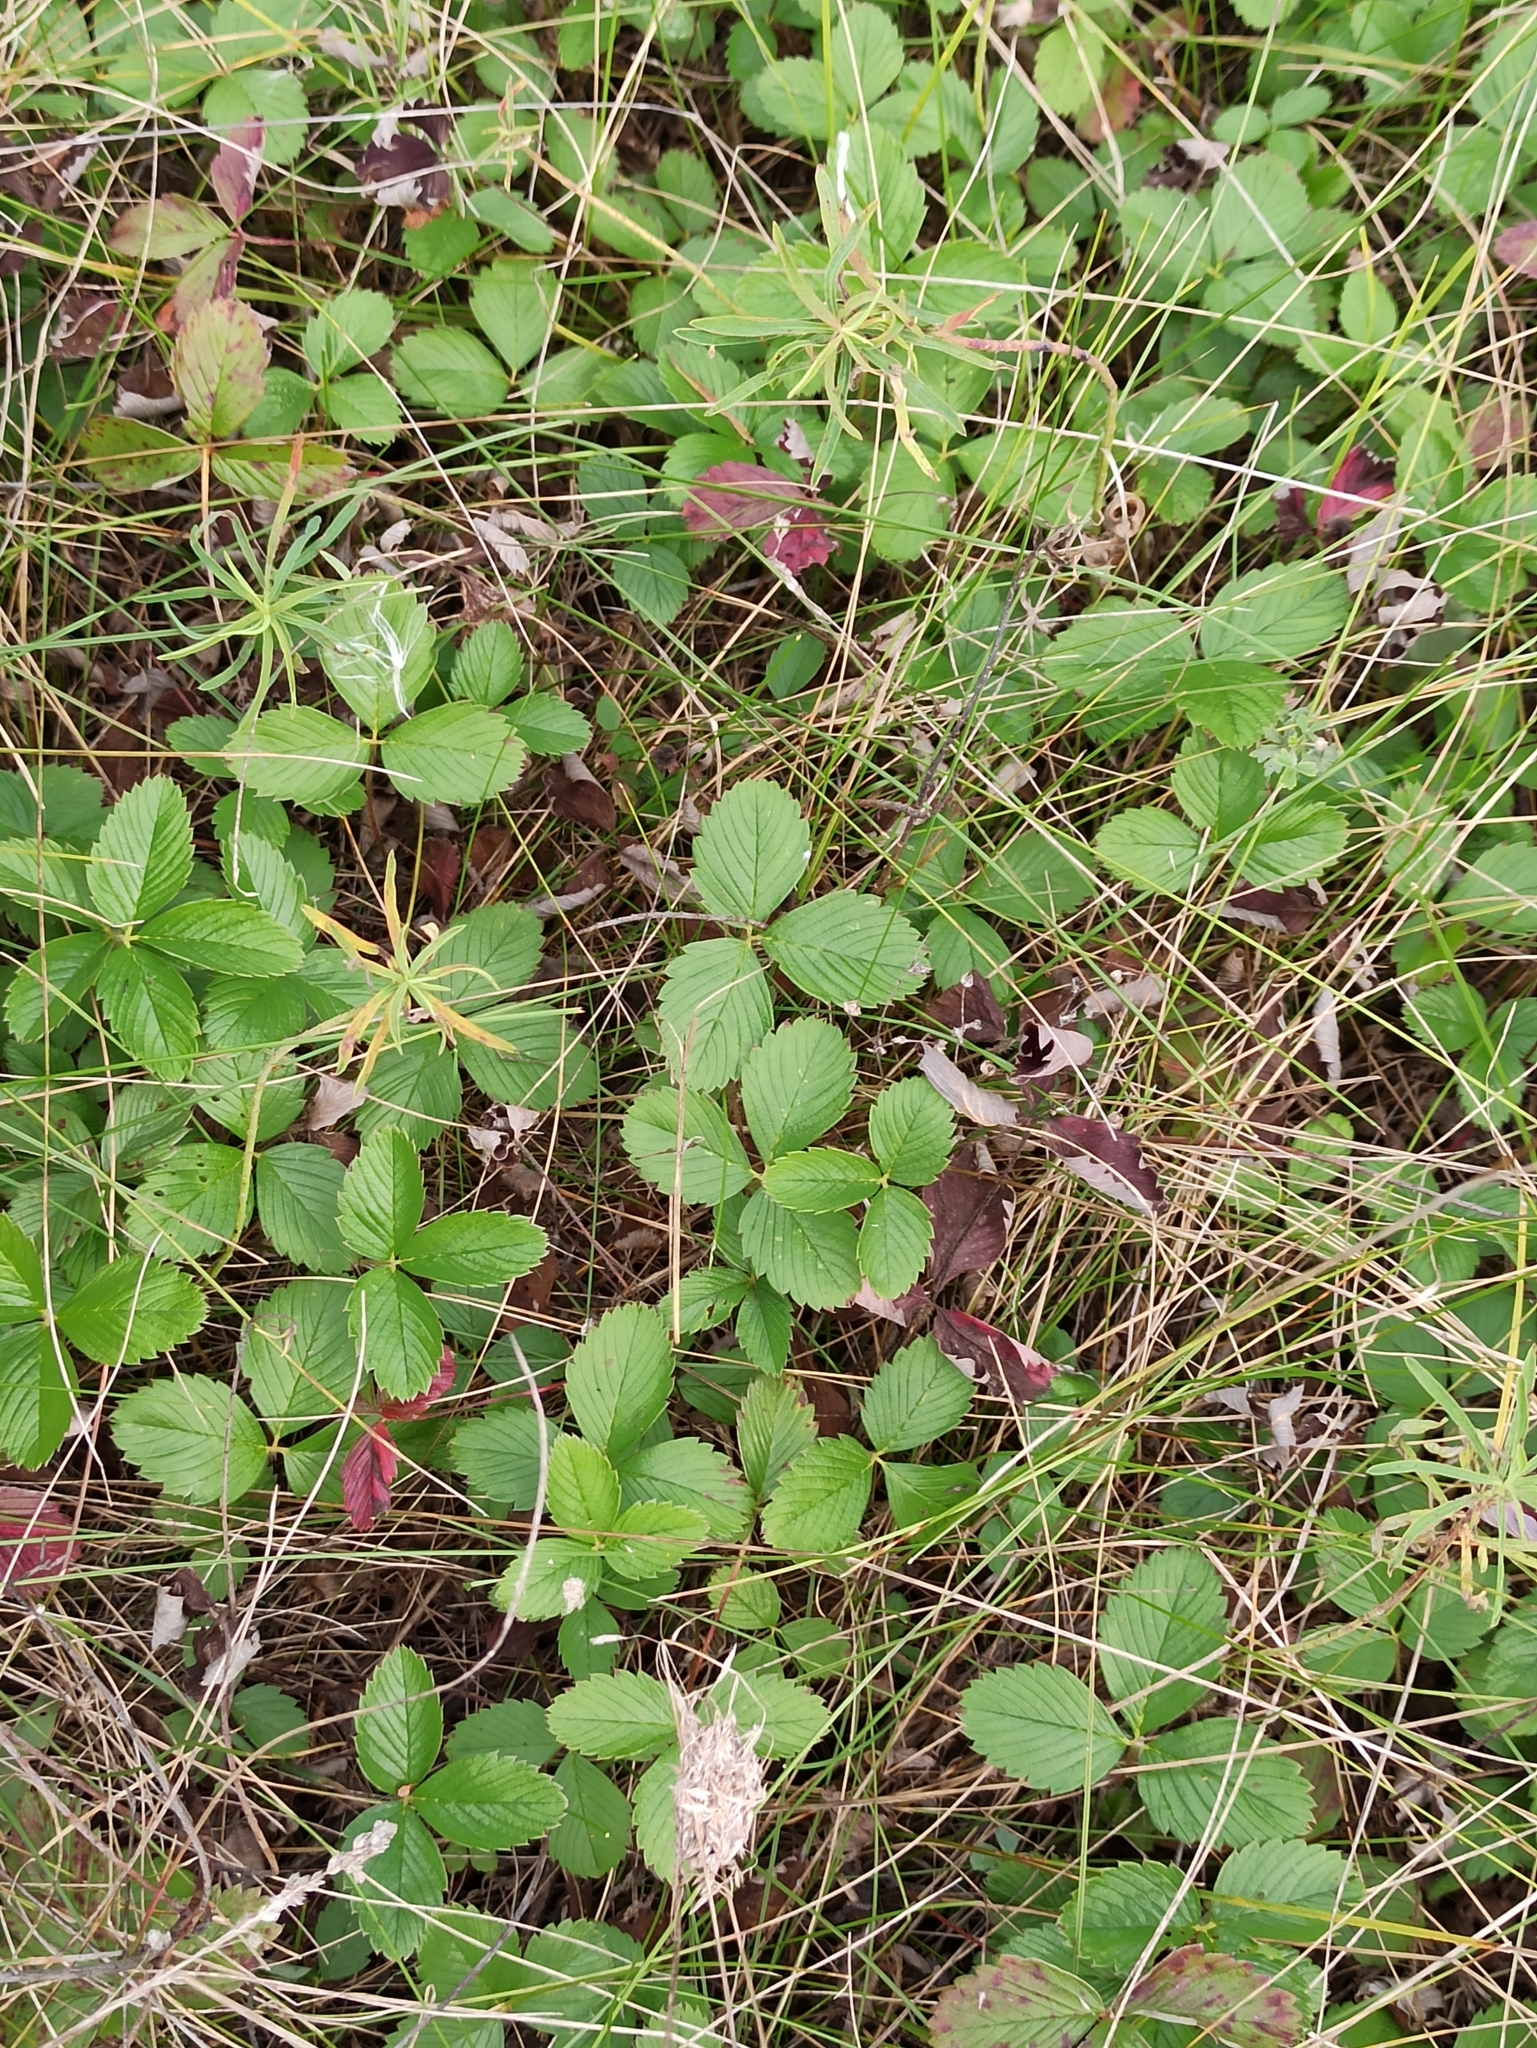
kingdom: Plantae
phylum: Tracheophyta
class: Magnoliopsida
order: Rosales
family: Rosaceae
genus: Fragaria
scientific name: Fragaria viridis
